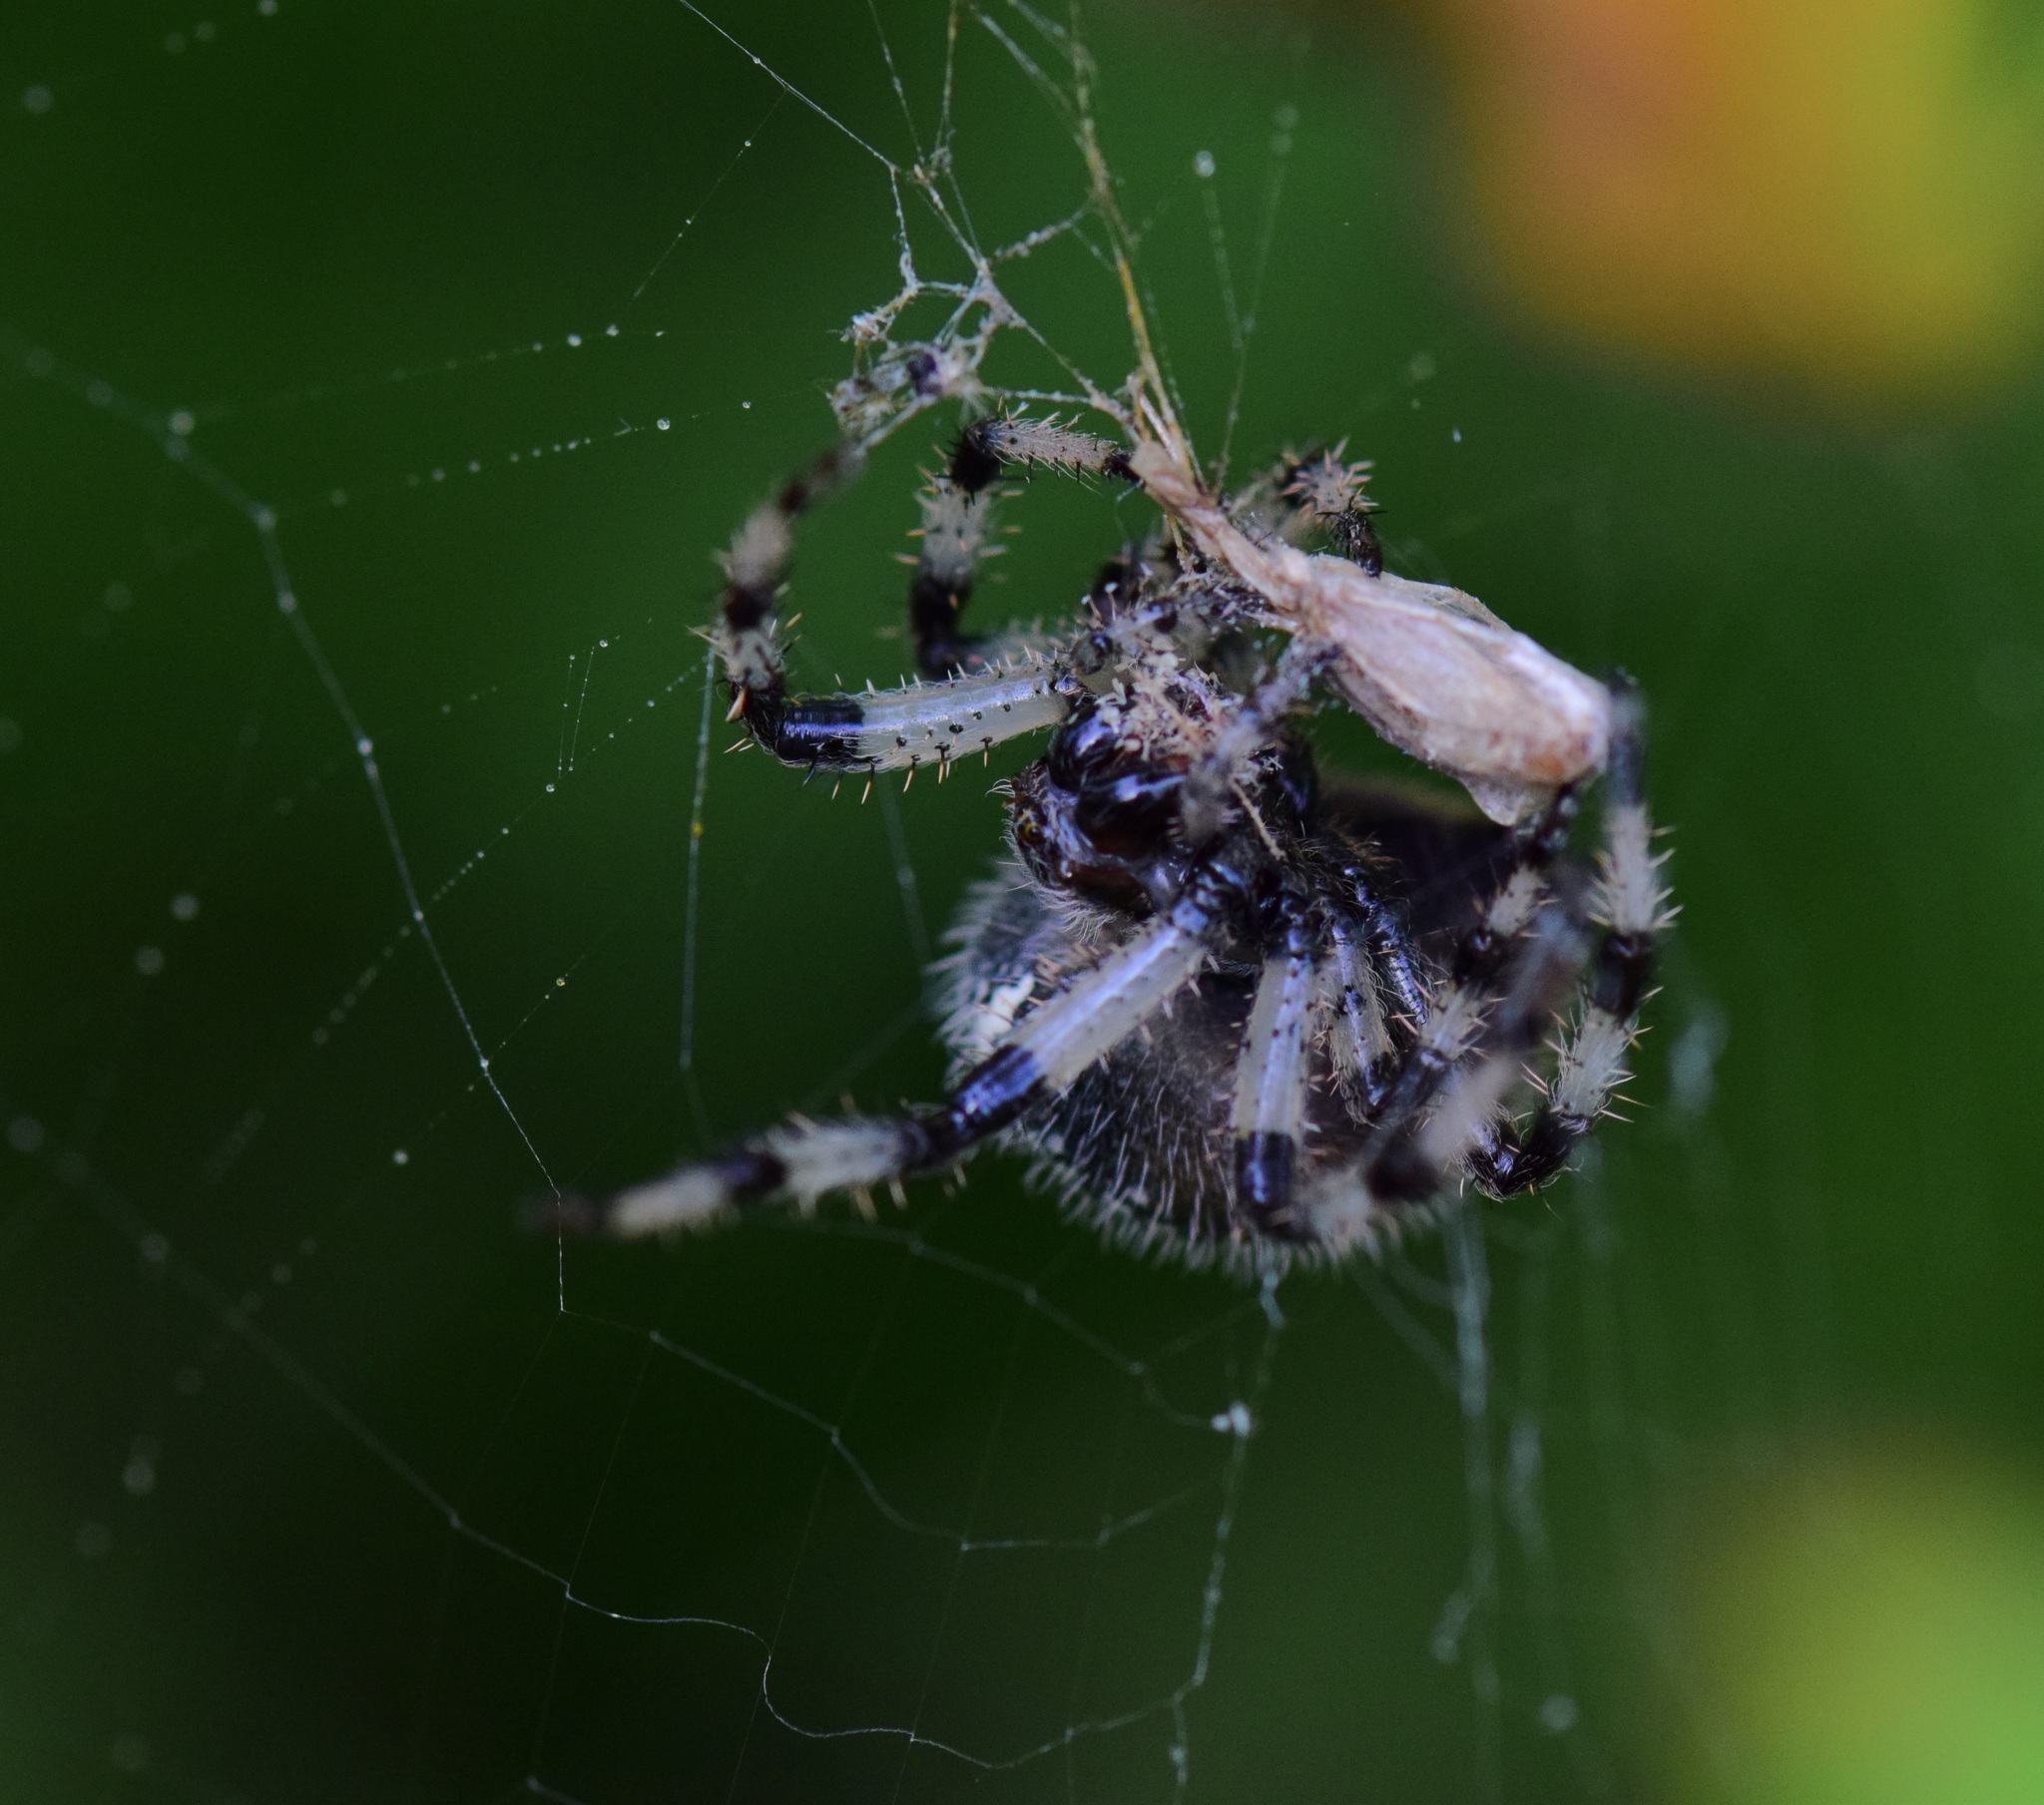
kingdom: Animalia
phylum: Arthropoda
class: Arachnida
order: Araneae
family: Araneidae
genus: Araneus
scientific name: Araneus trifolium
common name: Shamrock orbweaver
